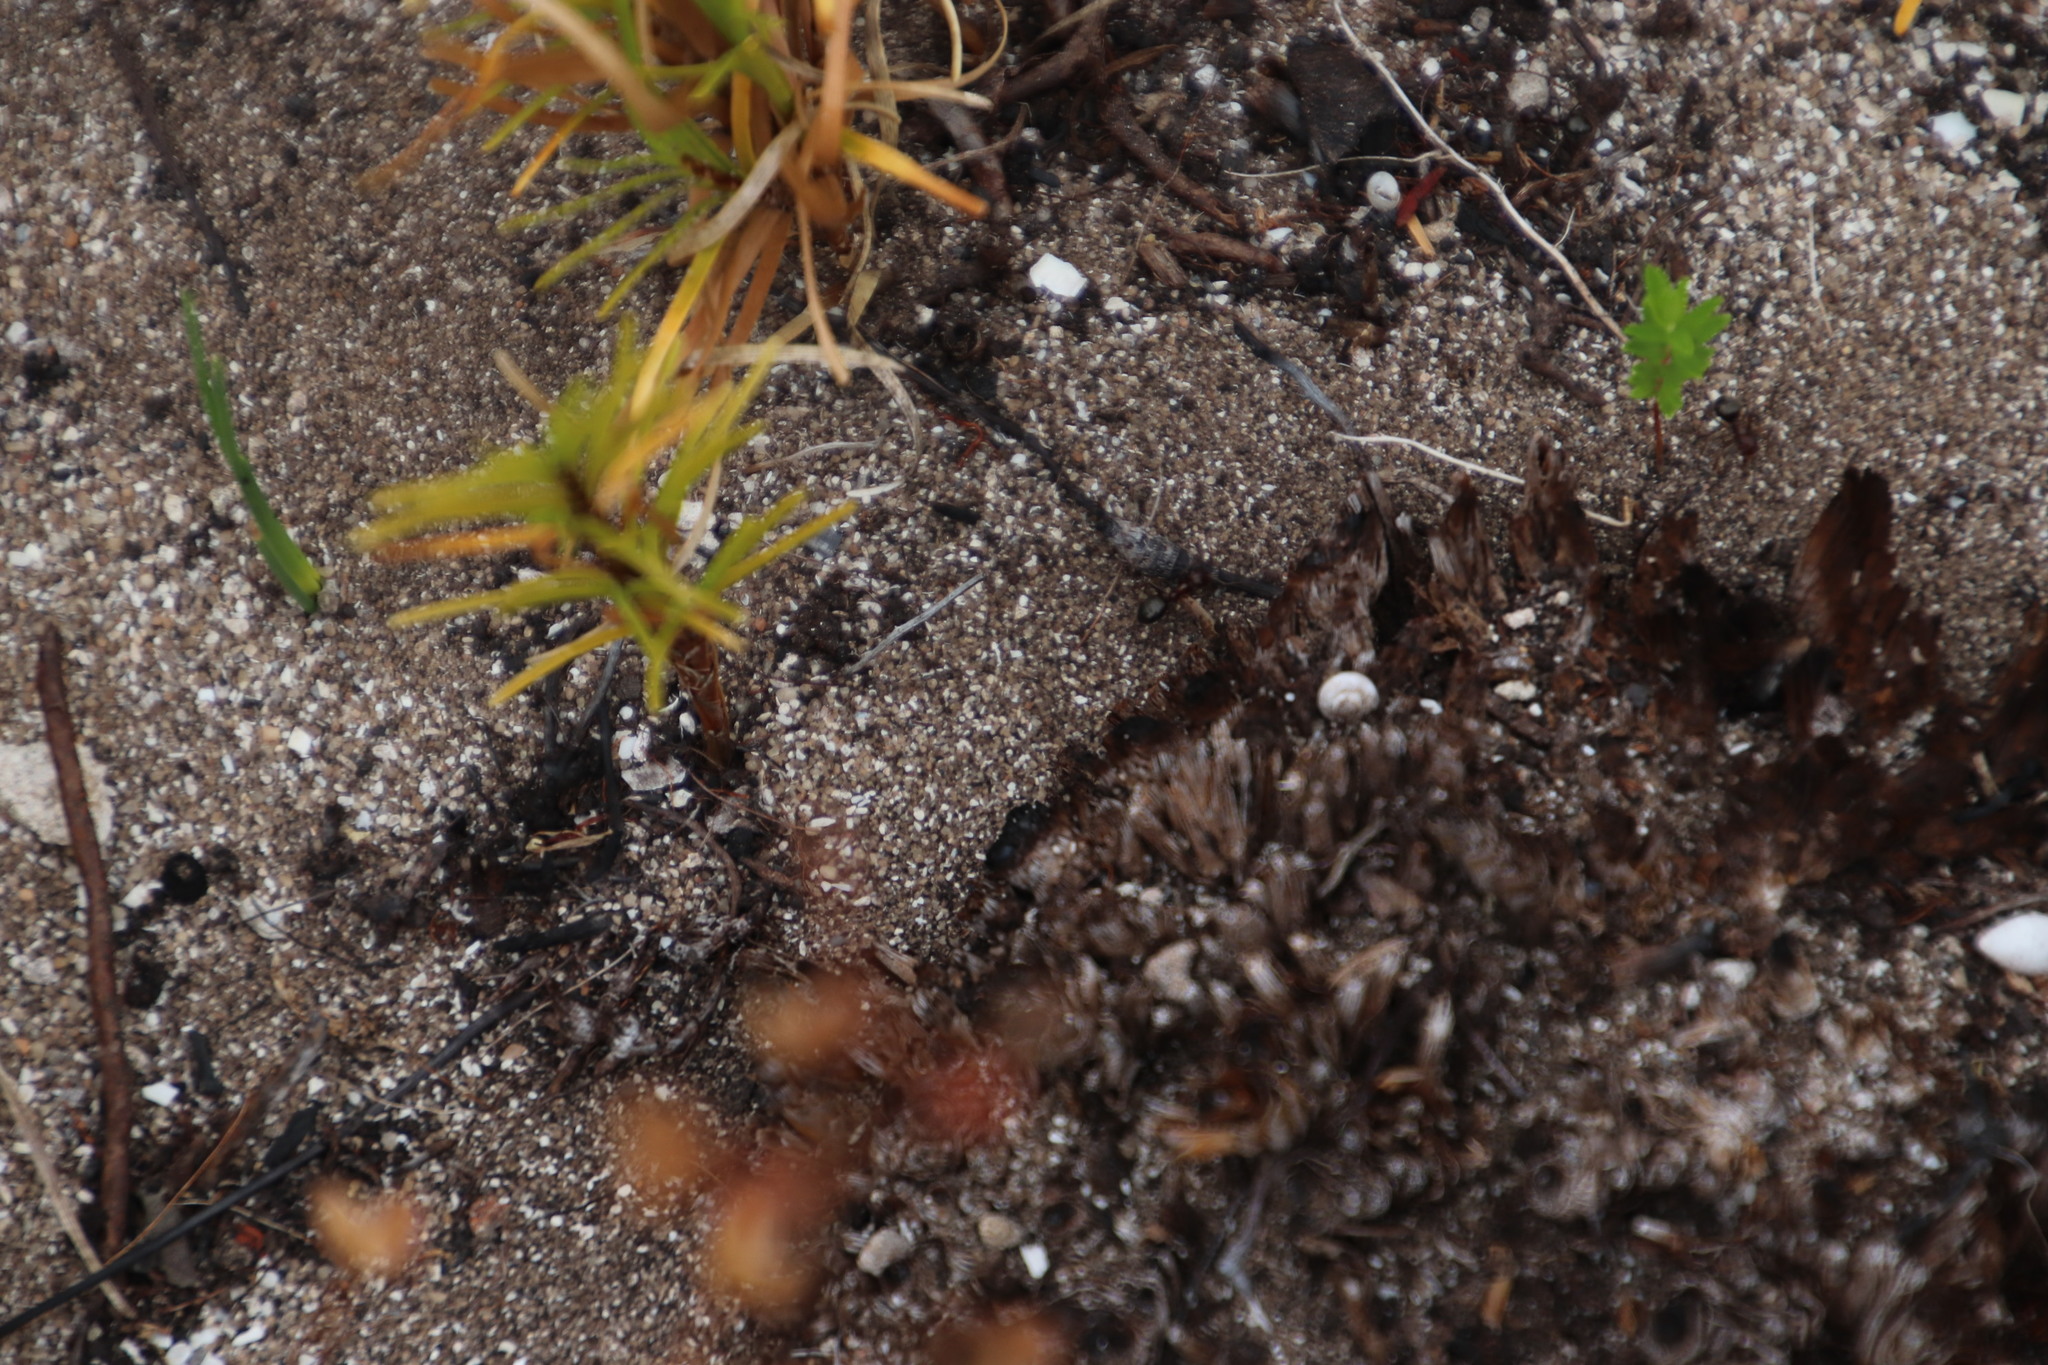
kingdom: Animalia
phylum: Arthropoda
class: Insecta
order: Hymenoptera
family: Formicidae
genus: Anoplolepis
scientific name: Anoplolepis steingroeveri
